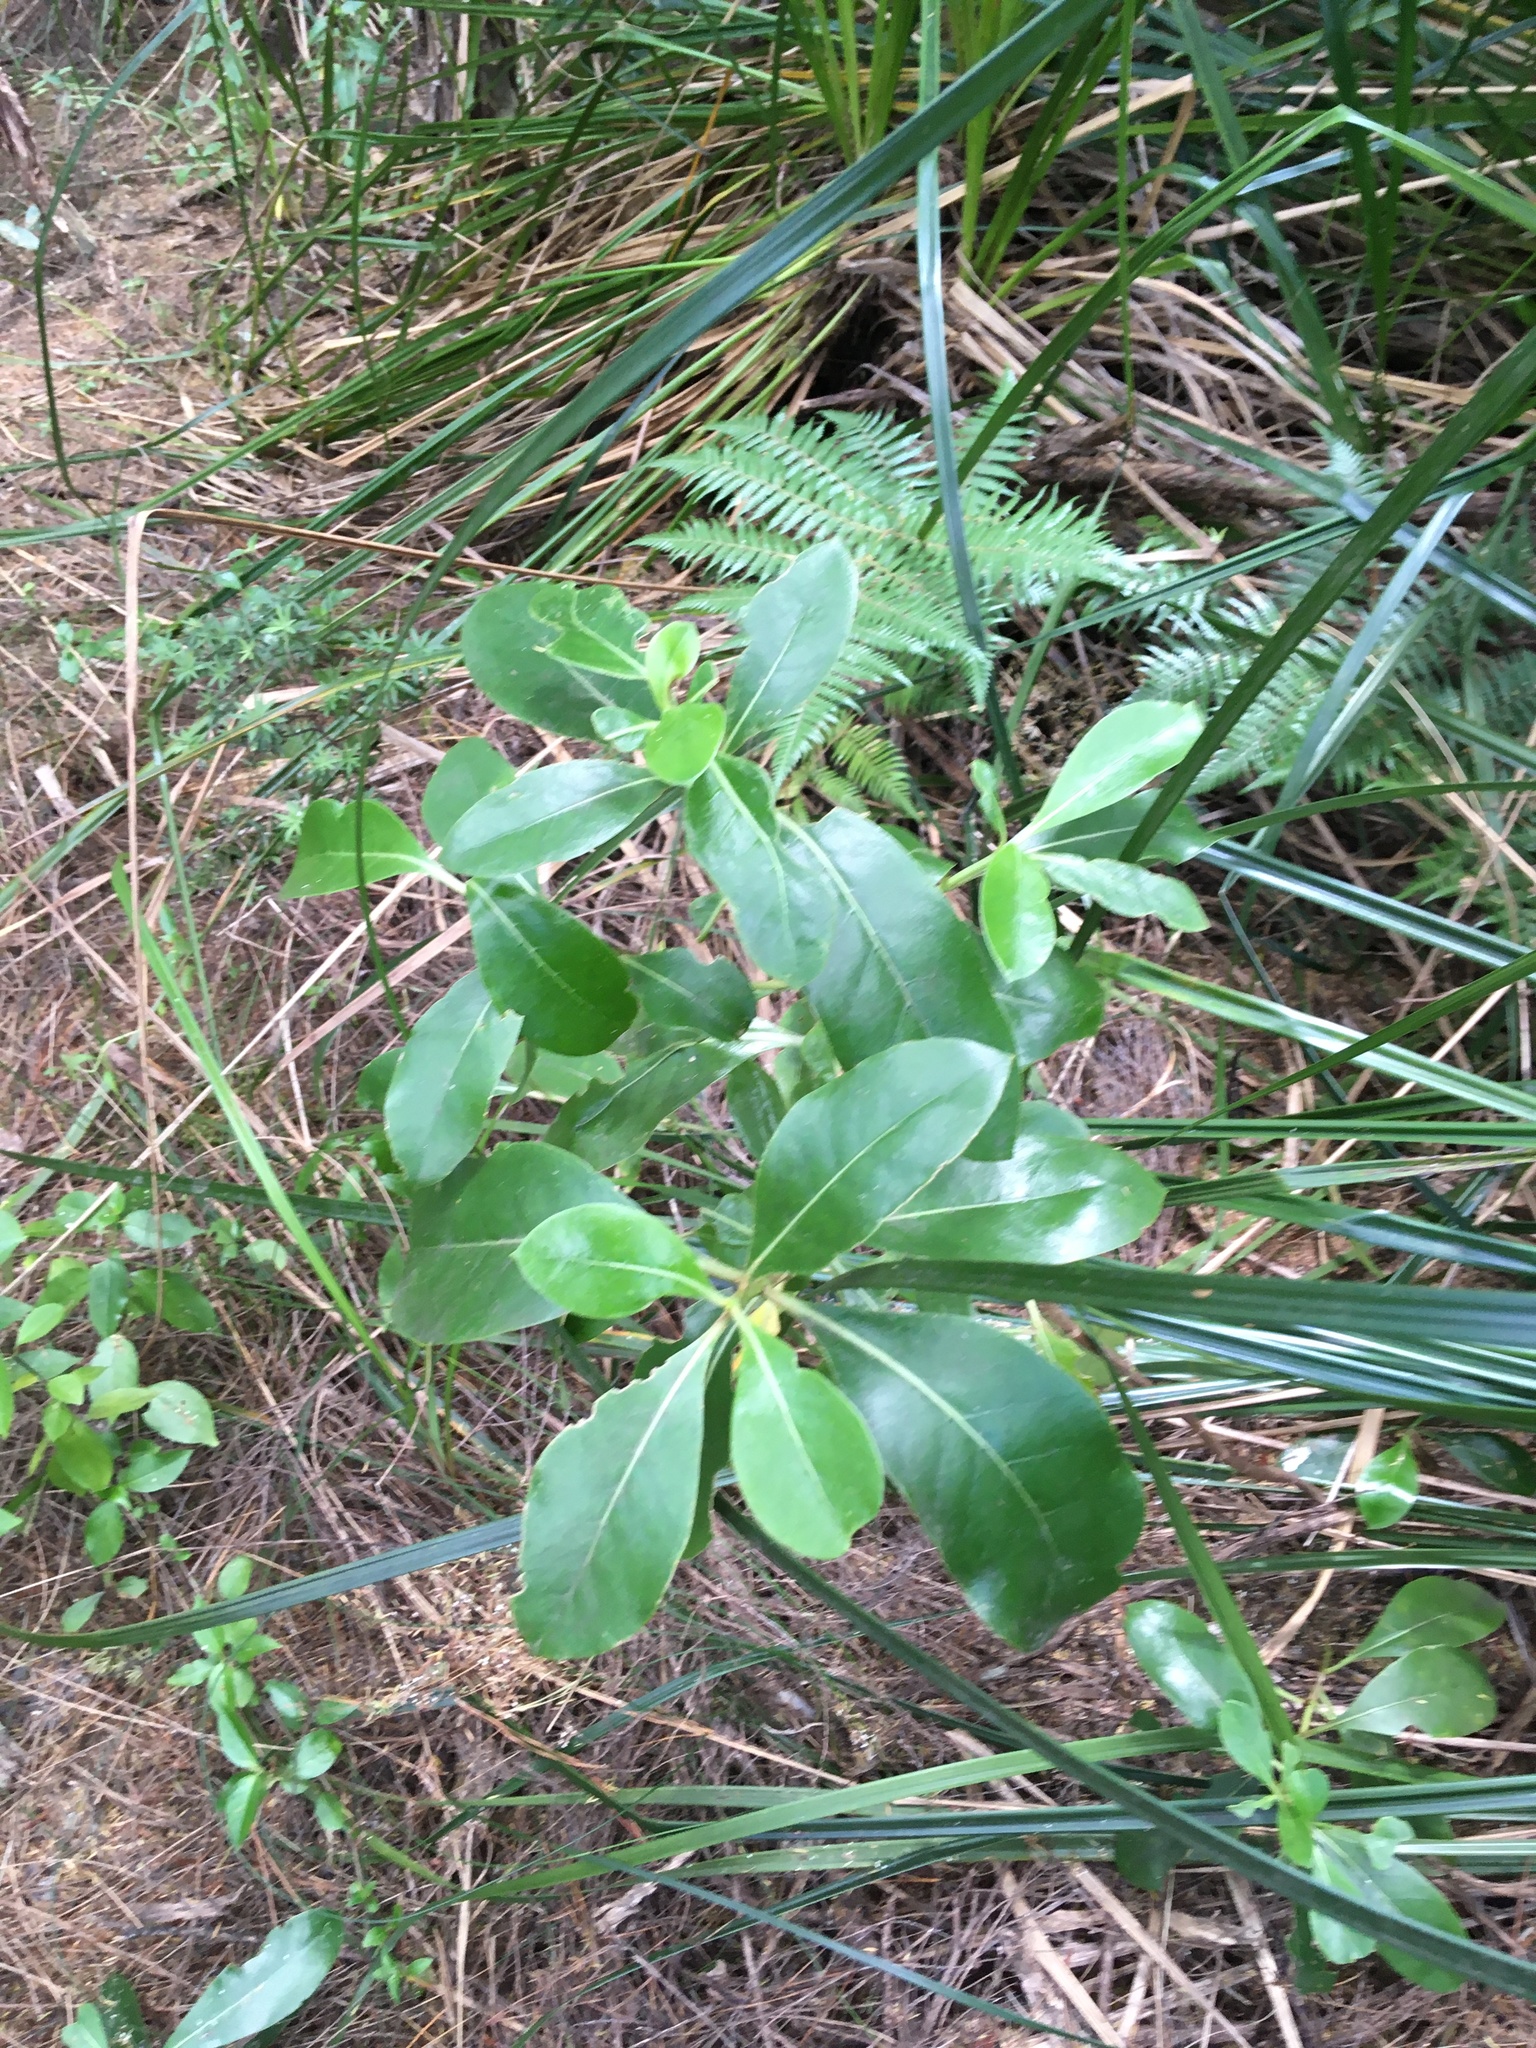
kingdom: Plantae
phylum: Tracheophyta
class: Magnoliopsida
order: Gentianales
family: Rubiaceae
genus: Coprosma
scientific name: Coprosma lucida
